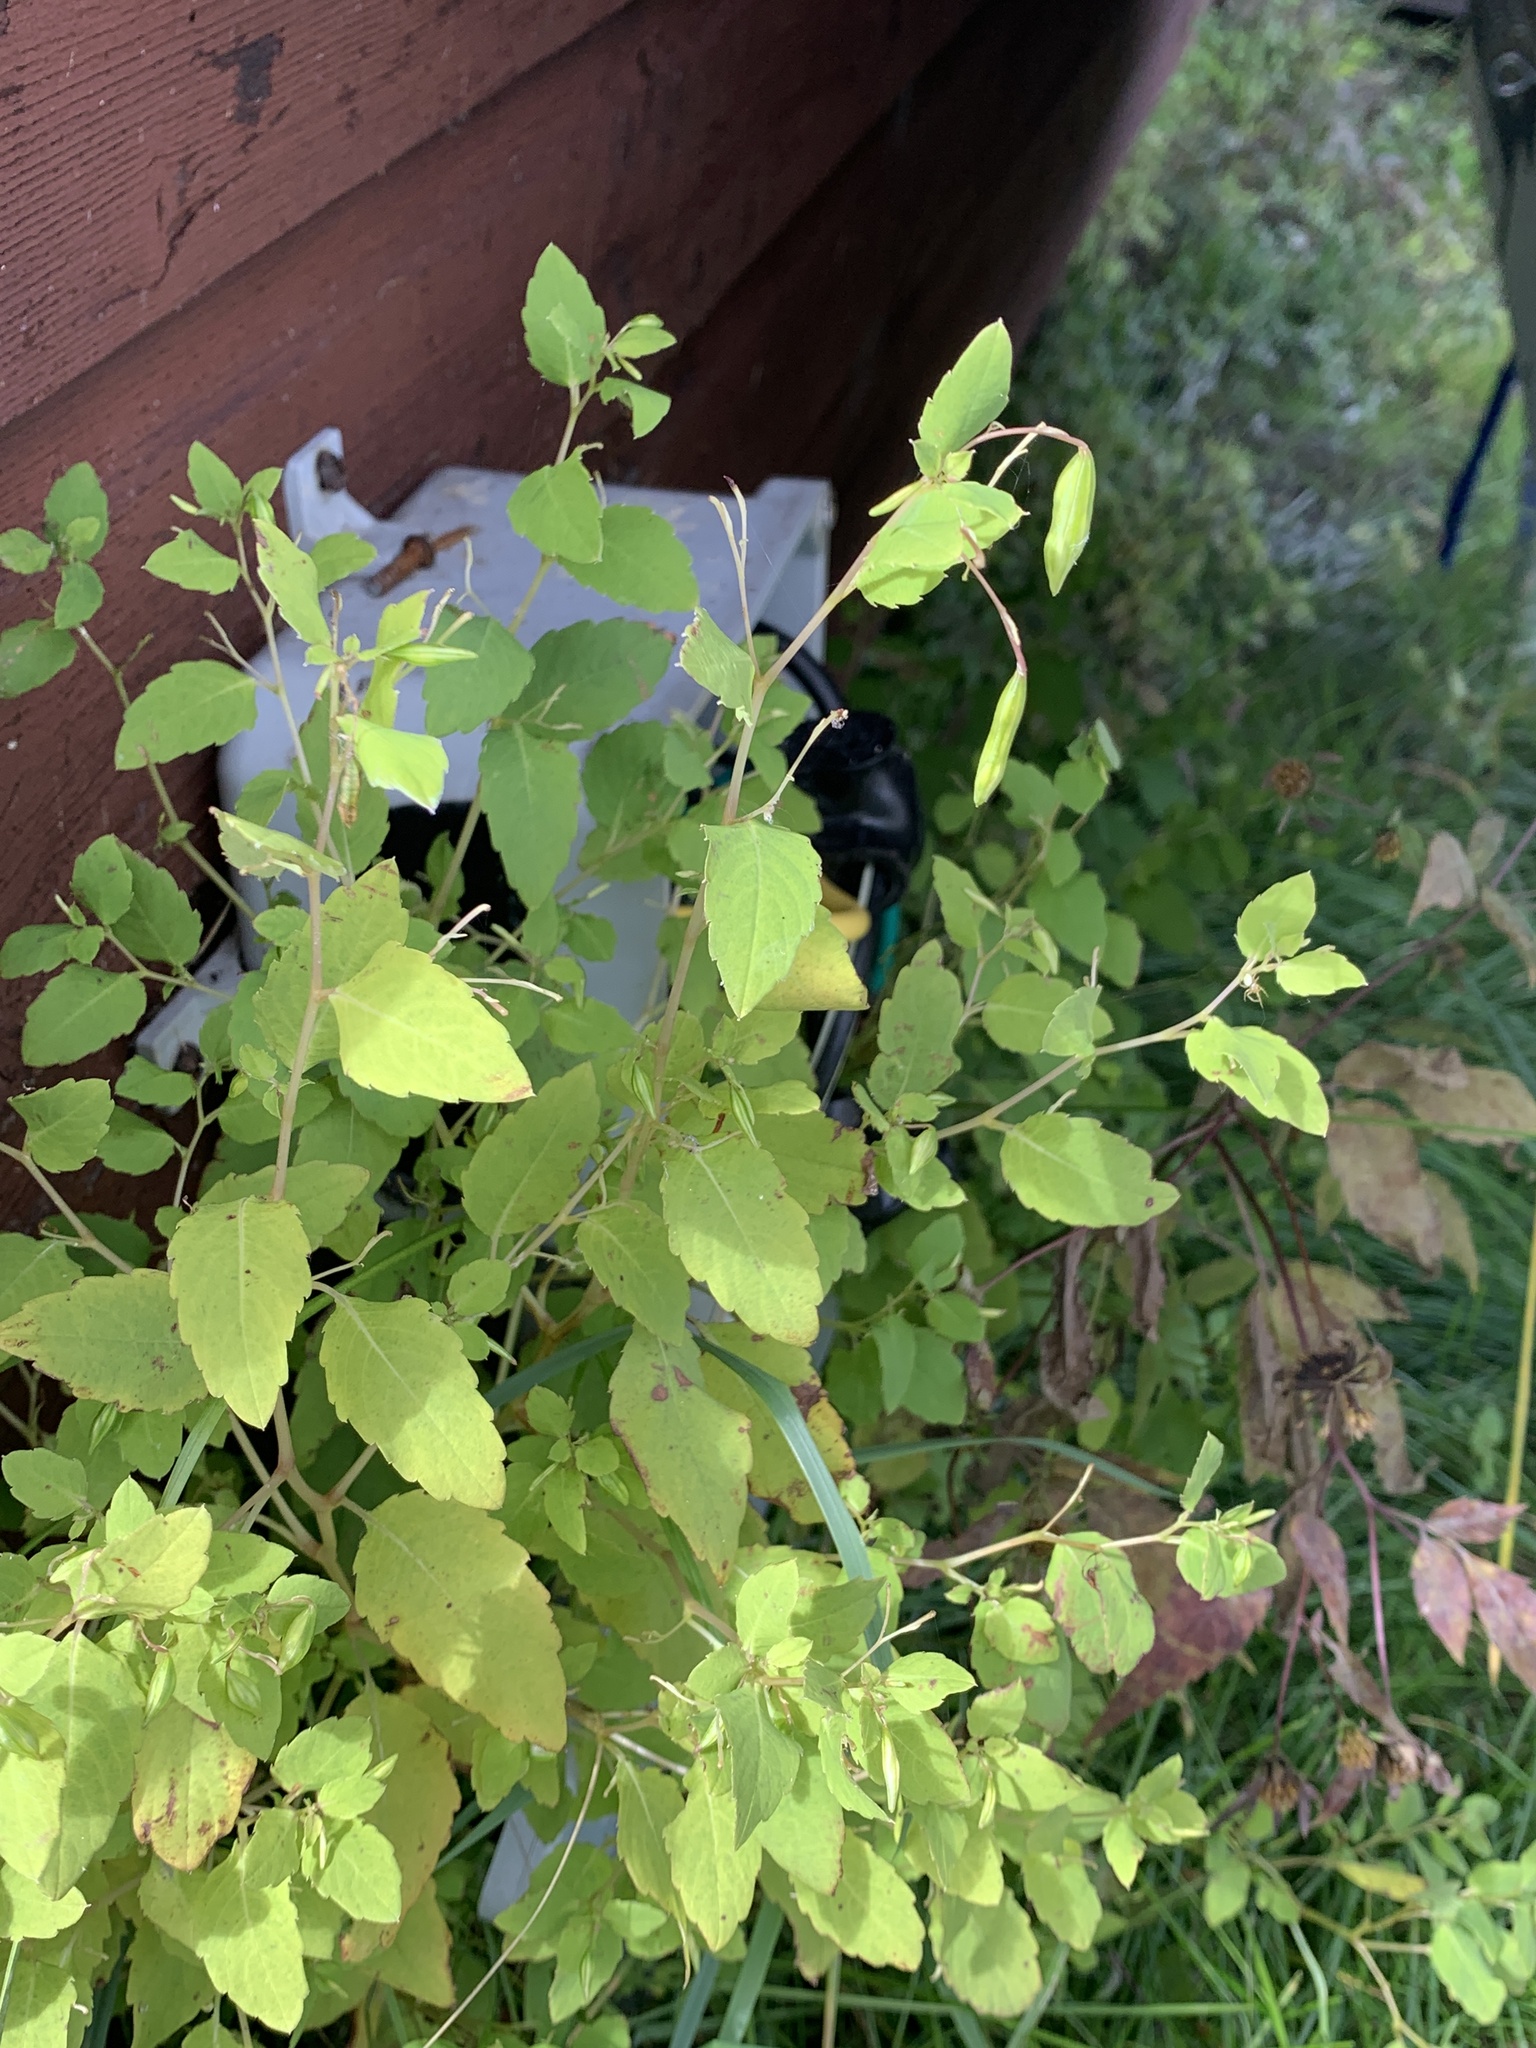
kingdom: Plantae
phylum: Tracheophyta
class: Magnoliopsida
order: Ericales
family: Balsaminaceae
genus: Impatiens
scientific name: Impatiens capensis
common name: Orange balsam
